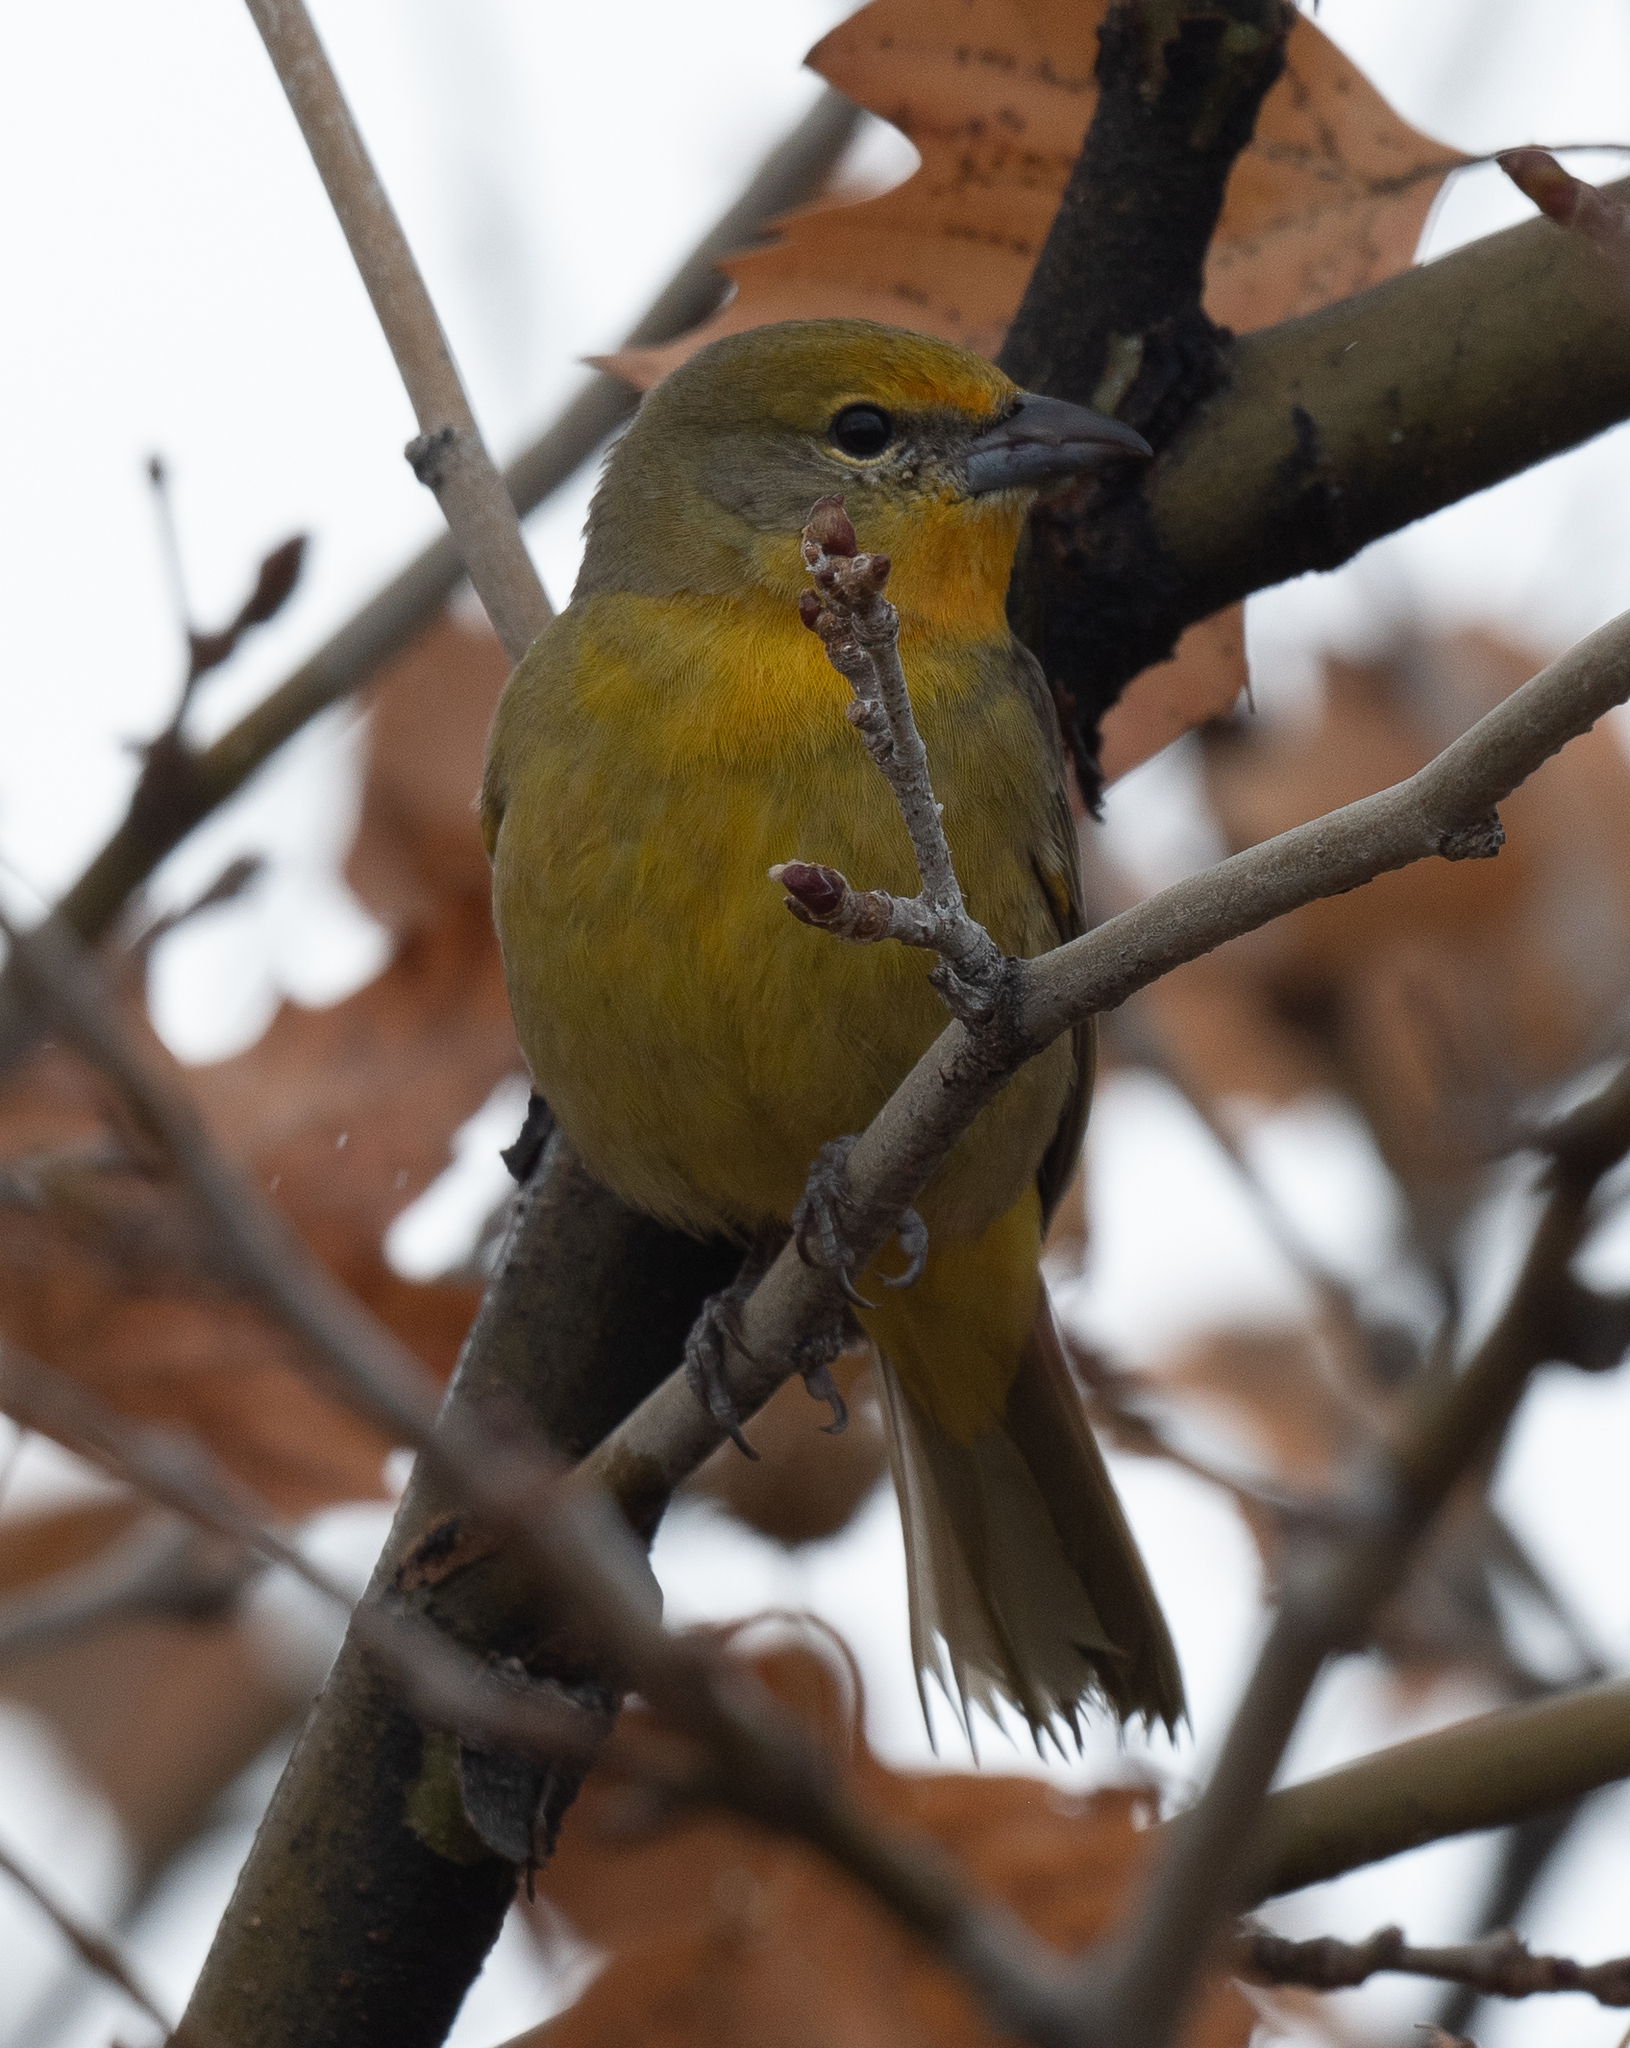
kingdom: Animalia
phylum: Chordata
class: Aves
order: Passeriformes
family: Cardinalidae
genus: Piranga
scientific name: Piranga flava
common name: Red tanager
